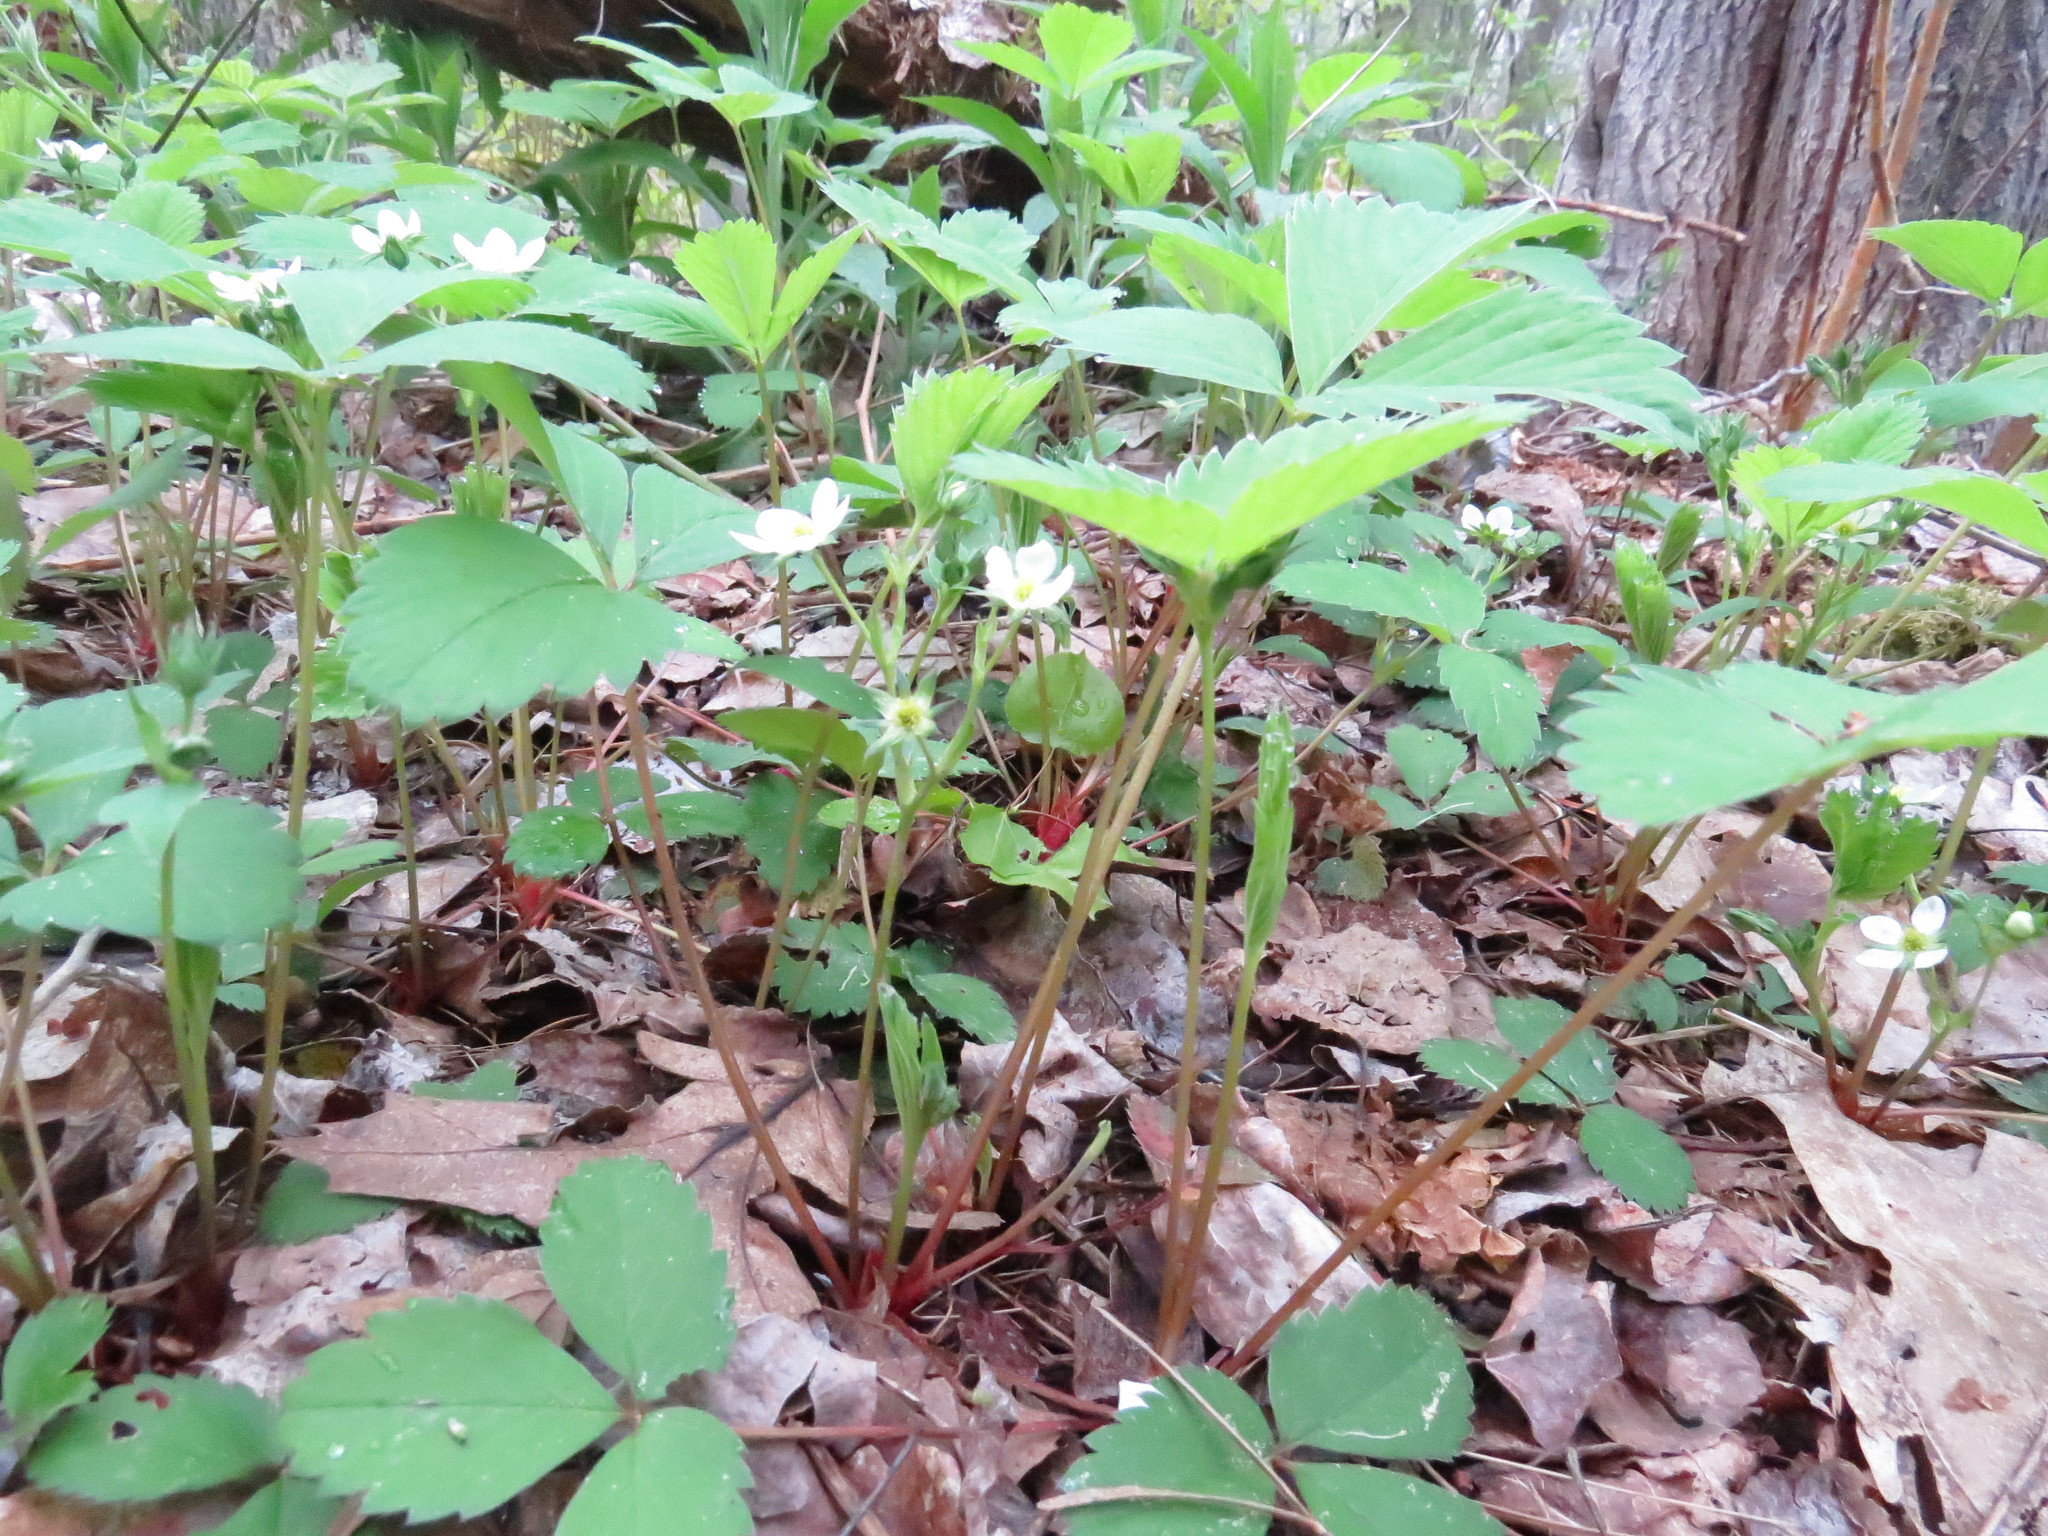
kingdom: Plantae
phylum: Tracheophyta
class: Magnoliopsida
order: Rosales
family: Rosaceae
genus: Fragaria
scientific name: Fragaria virginiana
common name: Thickleaved wild strawberry
